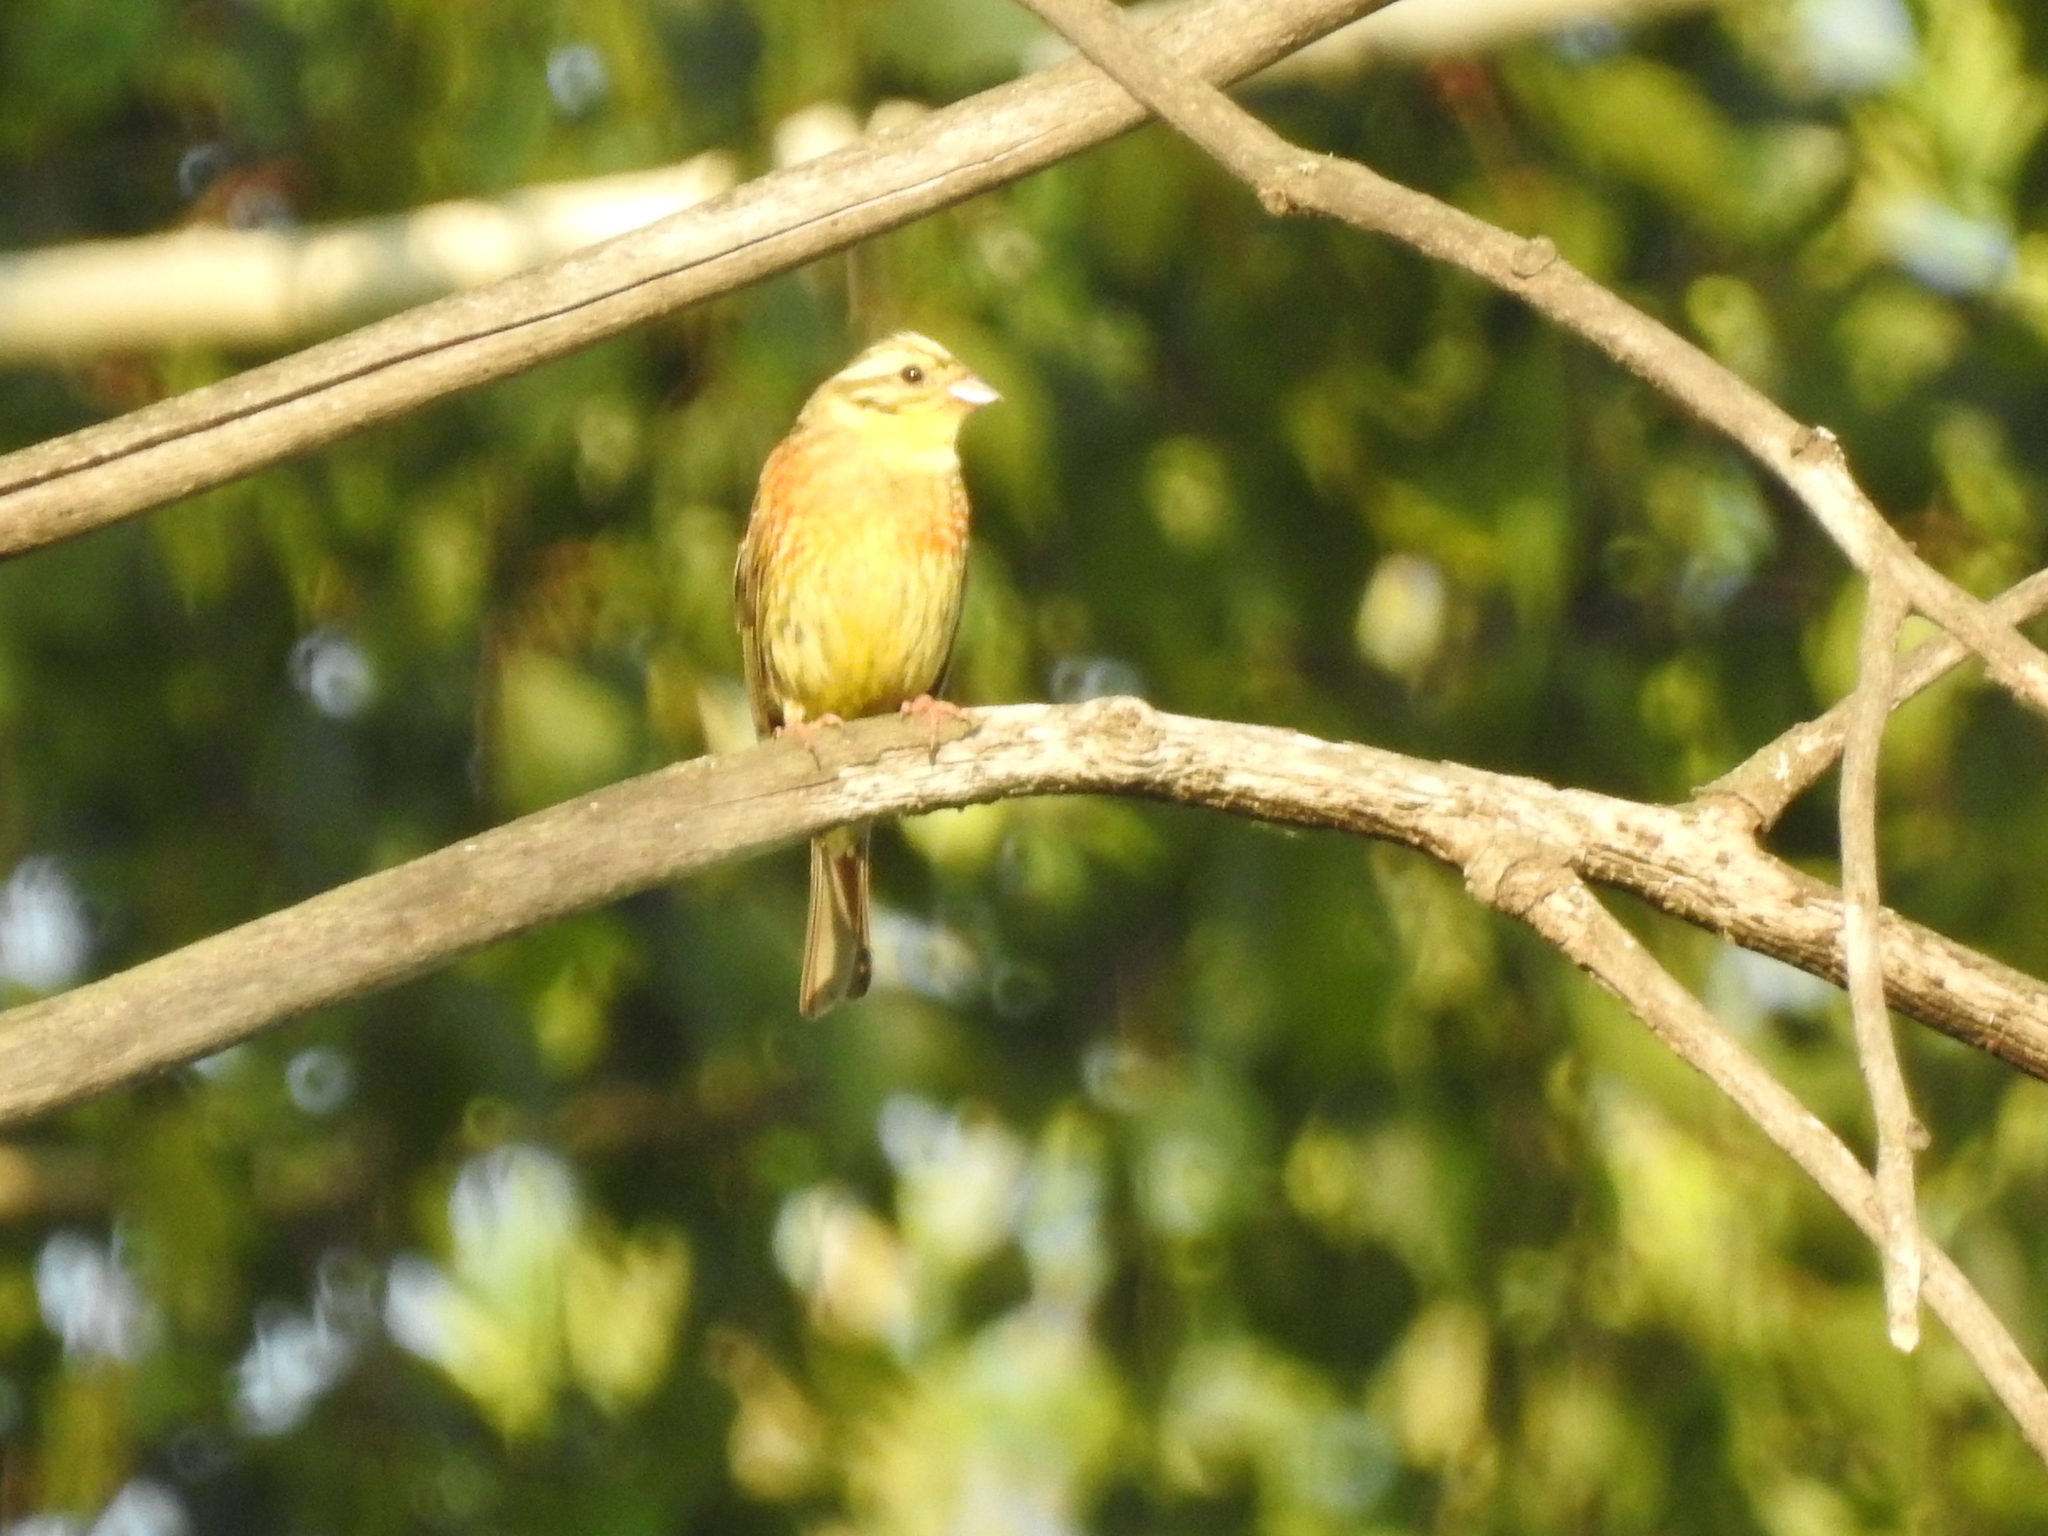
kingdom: Animalia
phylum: Chordata
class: Aves
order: Passeriformes
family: Emberizidae
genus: Emberiza
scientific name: Emberiza citrinella
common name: Yellowhammer
